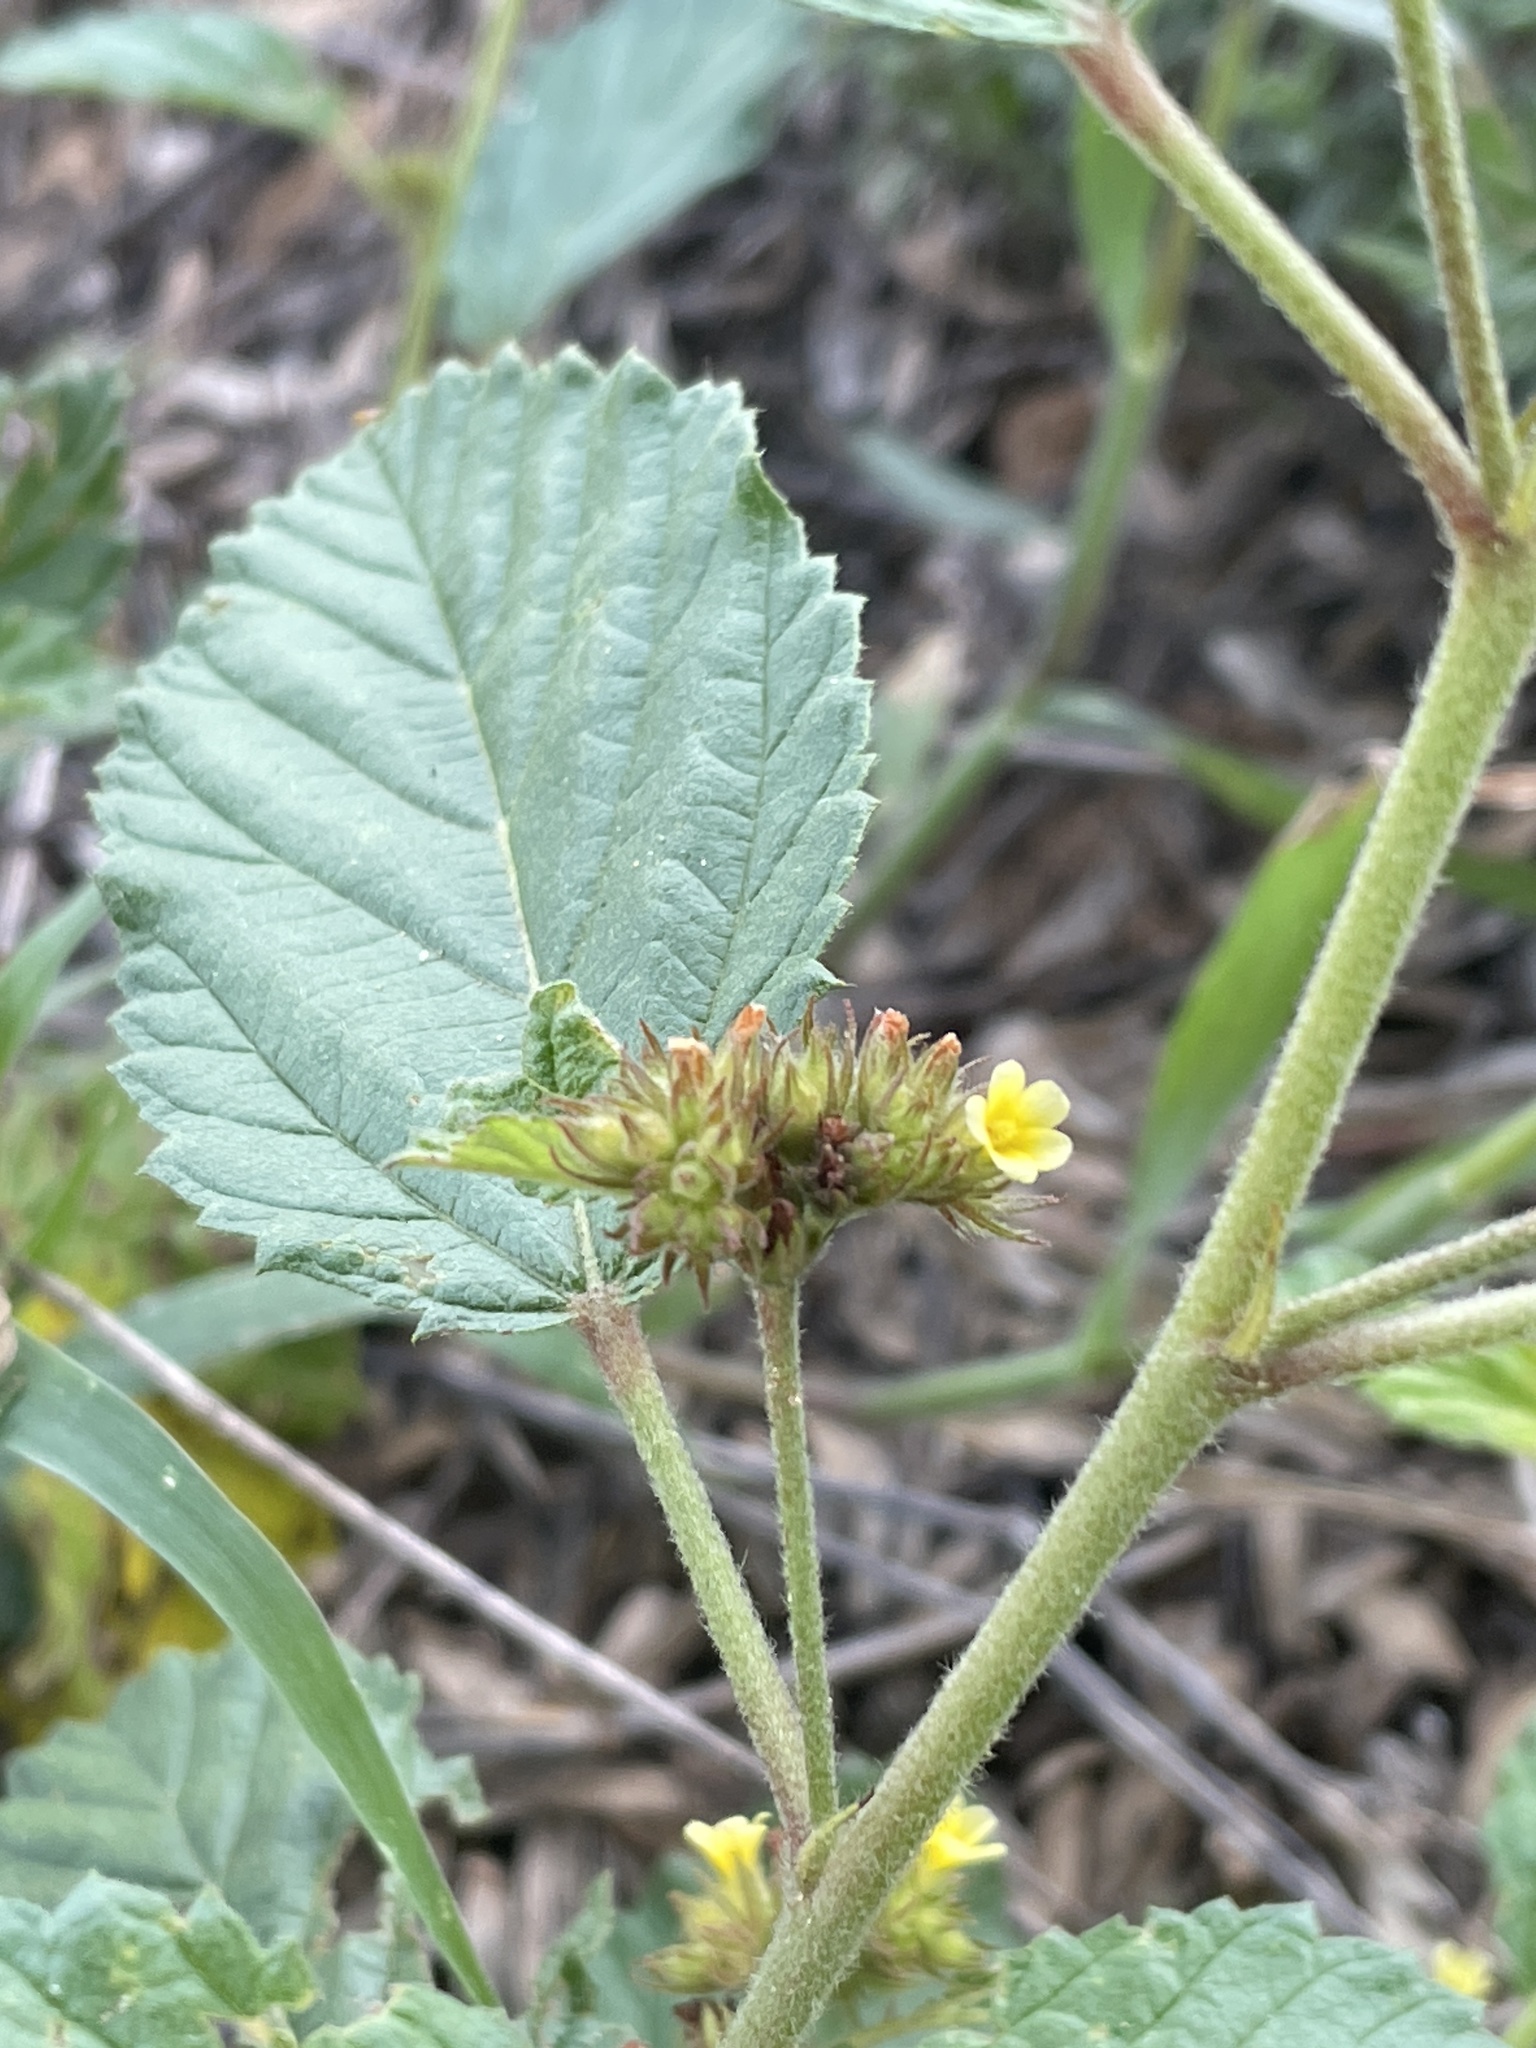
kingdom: Plantae
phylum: Tracheophyta
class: Magnoliopsida
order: Malvales
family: Malvaceae
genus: Waltheria
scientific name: Waltheria indica
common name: Leather-coat
